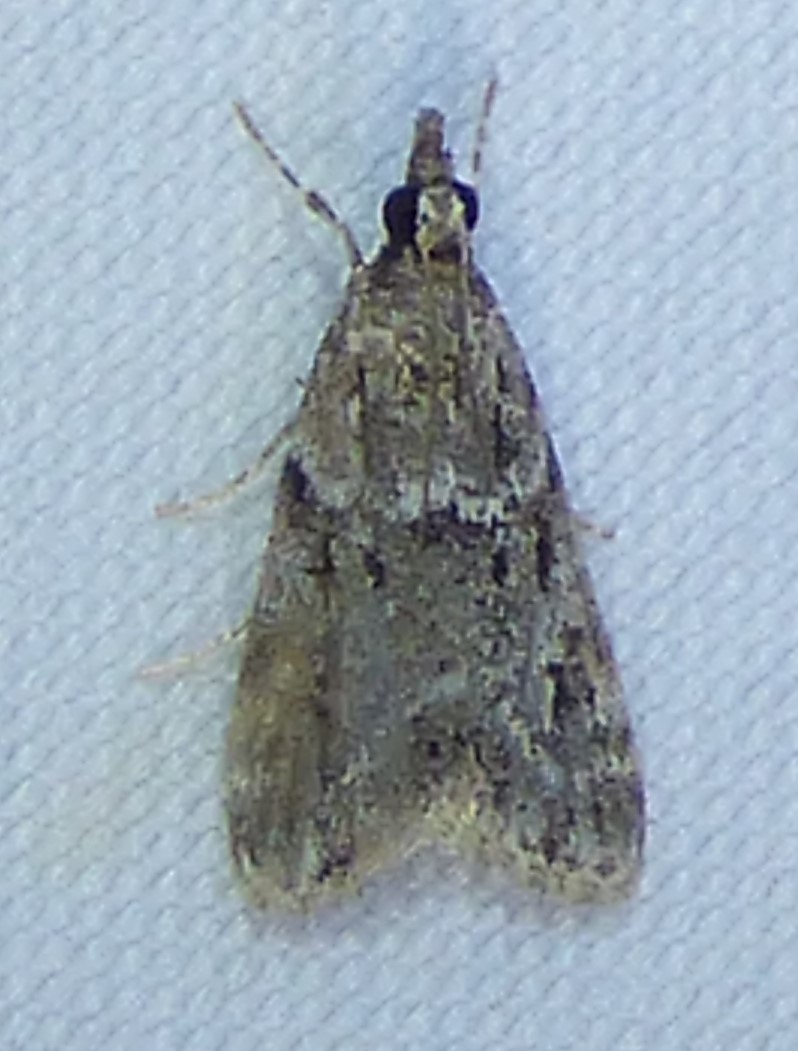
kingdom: Animalia
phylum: Arthropoda
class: Insecta
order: Lepidoptera
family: Crambidae
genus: Eudonia
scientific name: Eudonia heterosalis
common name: Mcdunnough's eudonia
